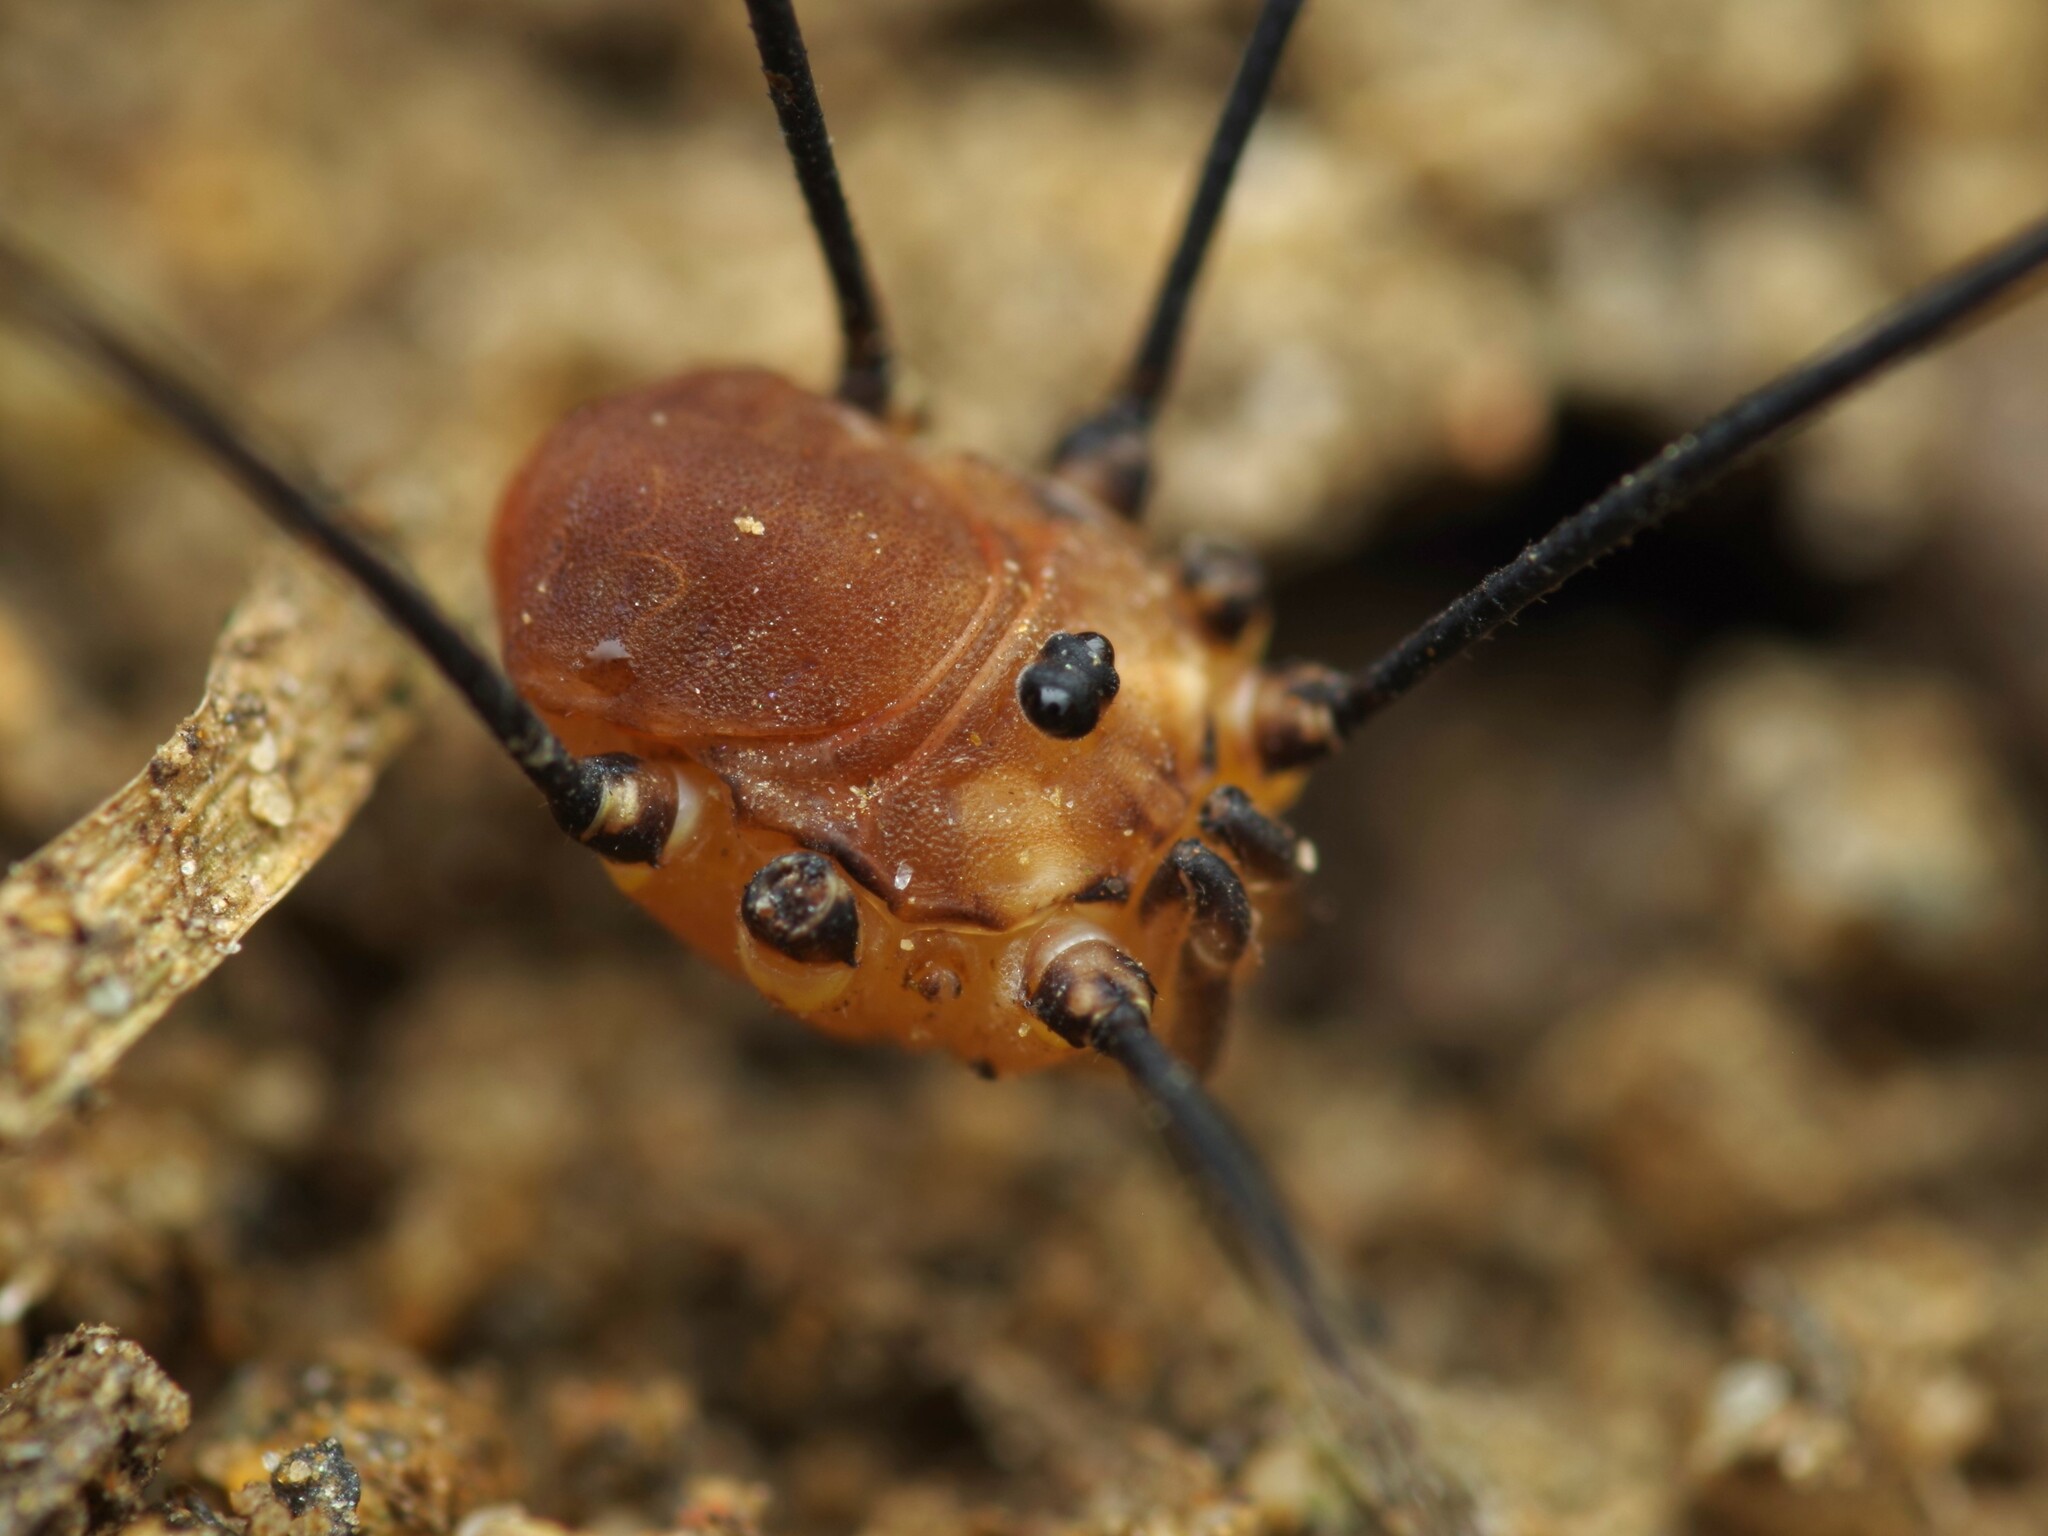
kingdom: Animalia
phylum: Arthropoda
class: Arachnida
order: Opiliones
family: Sclerosomatidae
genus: Leiobunum
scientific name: Leiobunum rotundum
